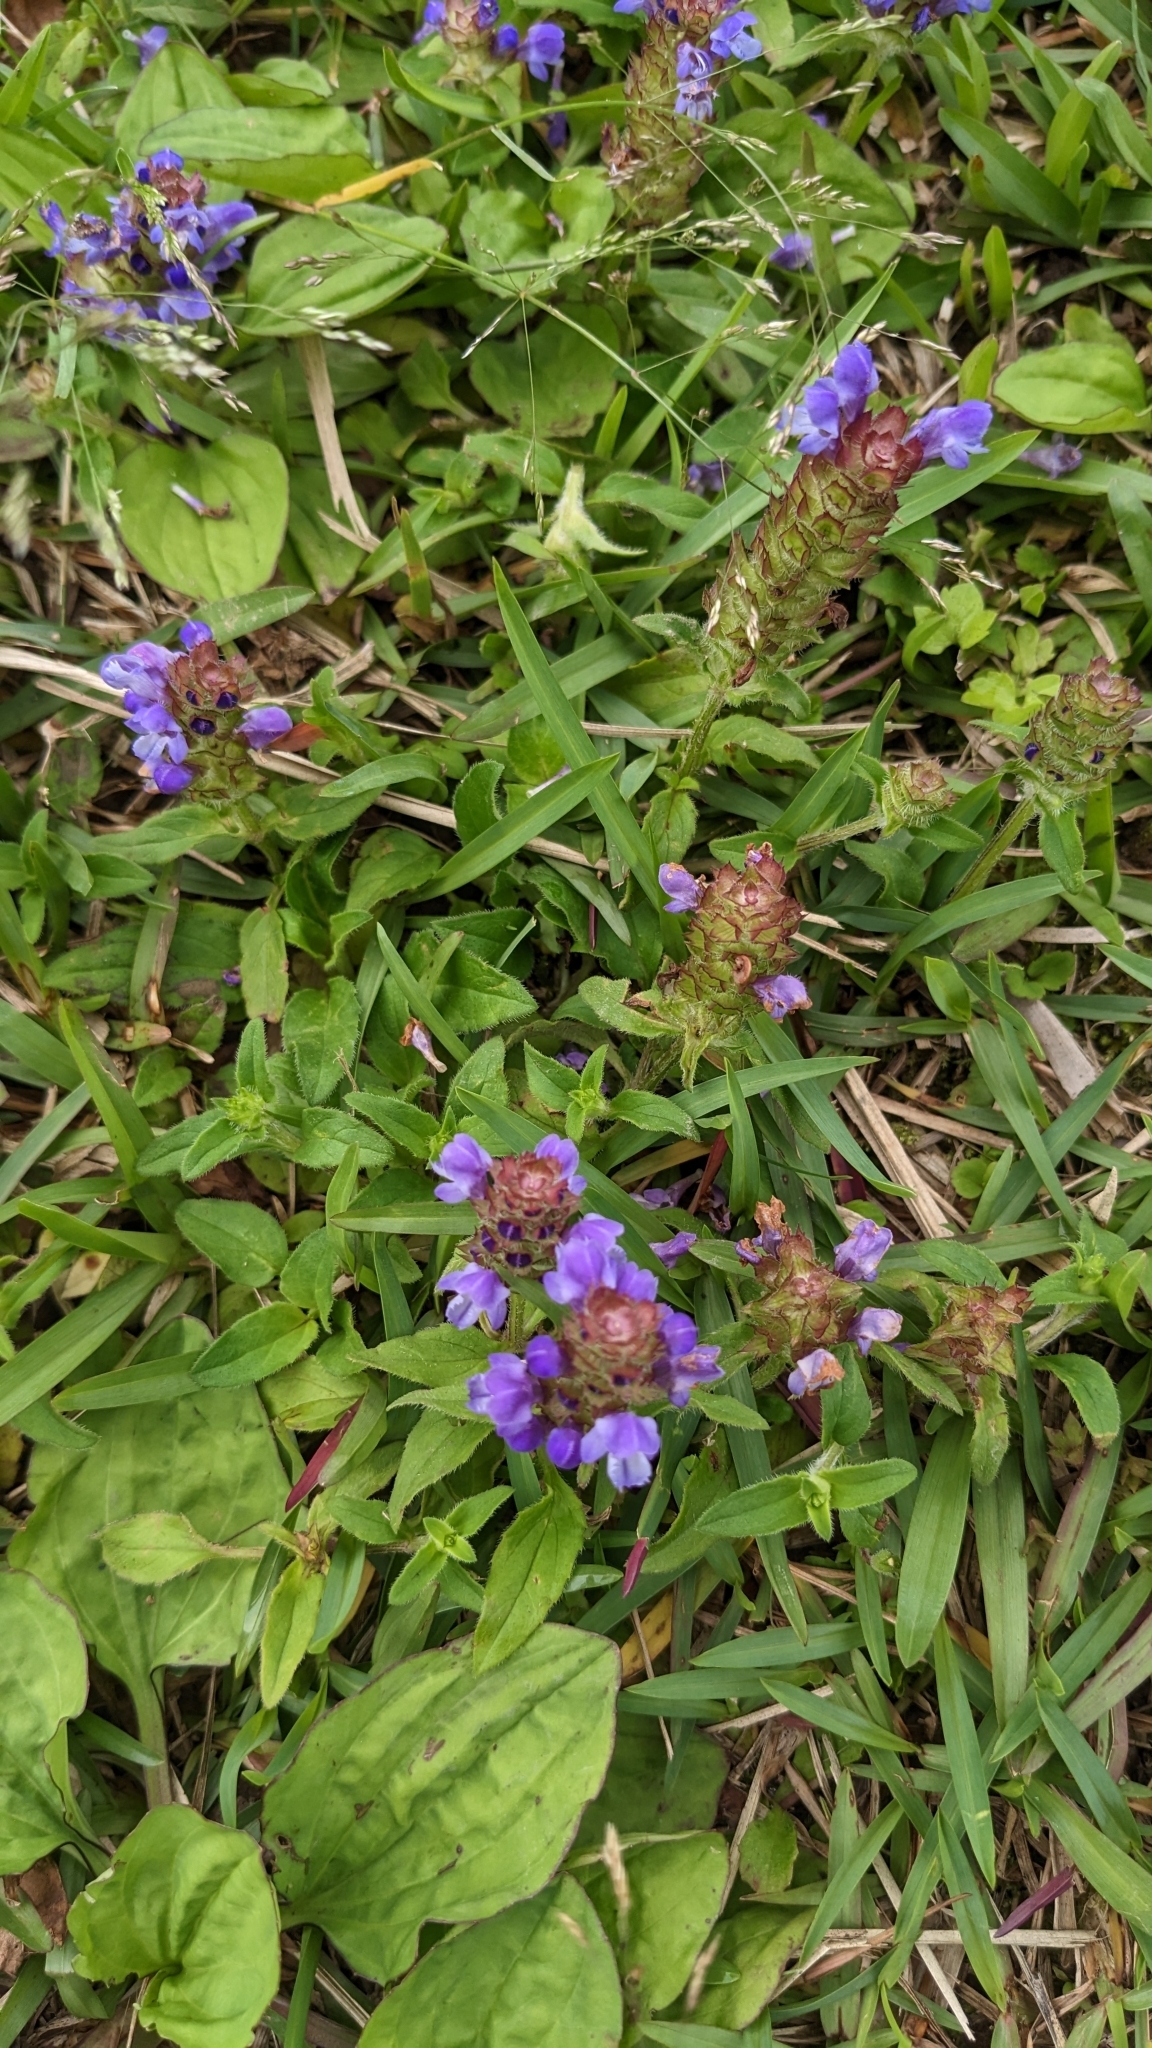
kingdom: Plantae
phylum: Tracheophyta
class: Magnoliopsida
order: Lamiales
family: Lamiaceae
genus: Prunella
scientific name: Prunella vulgaris
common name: Heal-all
